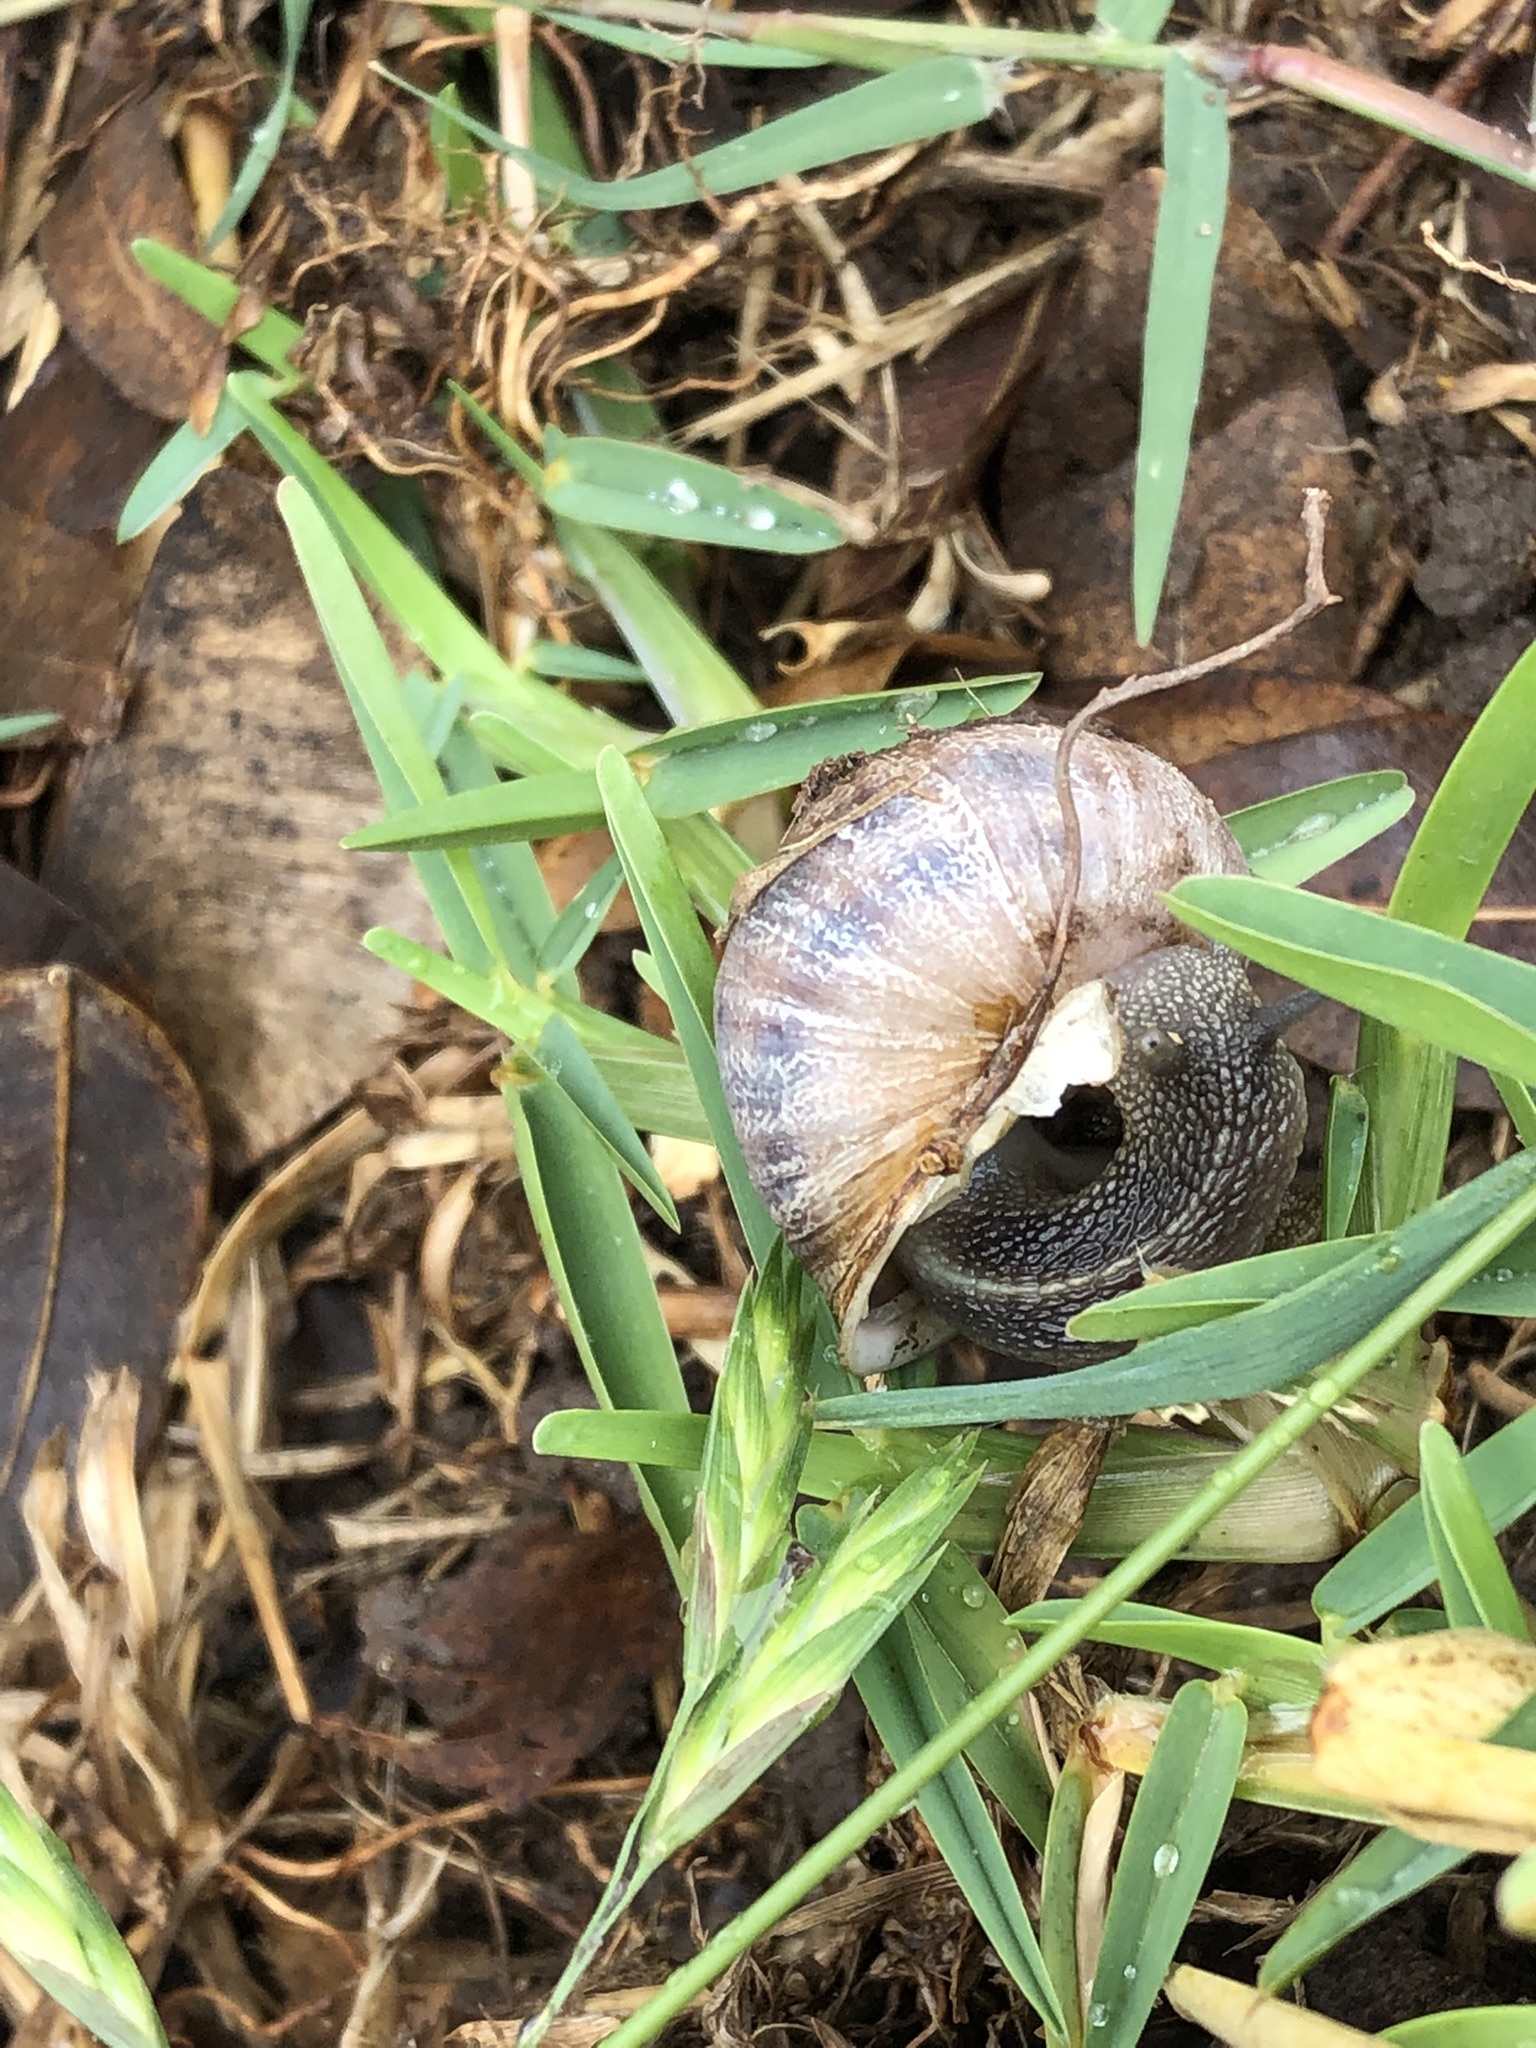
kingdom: Animalia
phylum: Mollusca
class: Gastropoda
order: Stylommatophora
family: Helicidae
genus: Cornu
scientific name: Cornu aspersum
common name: Brown garden snail
